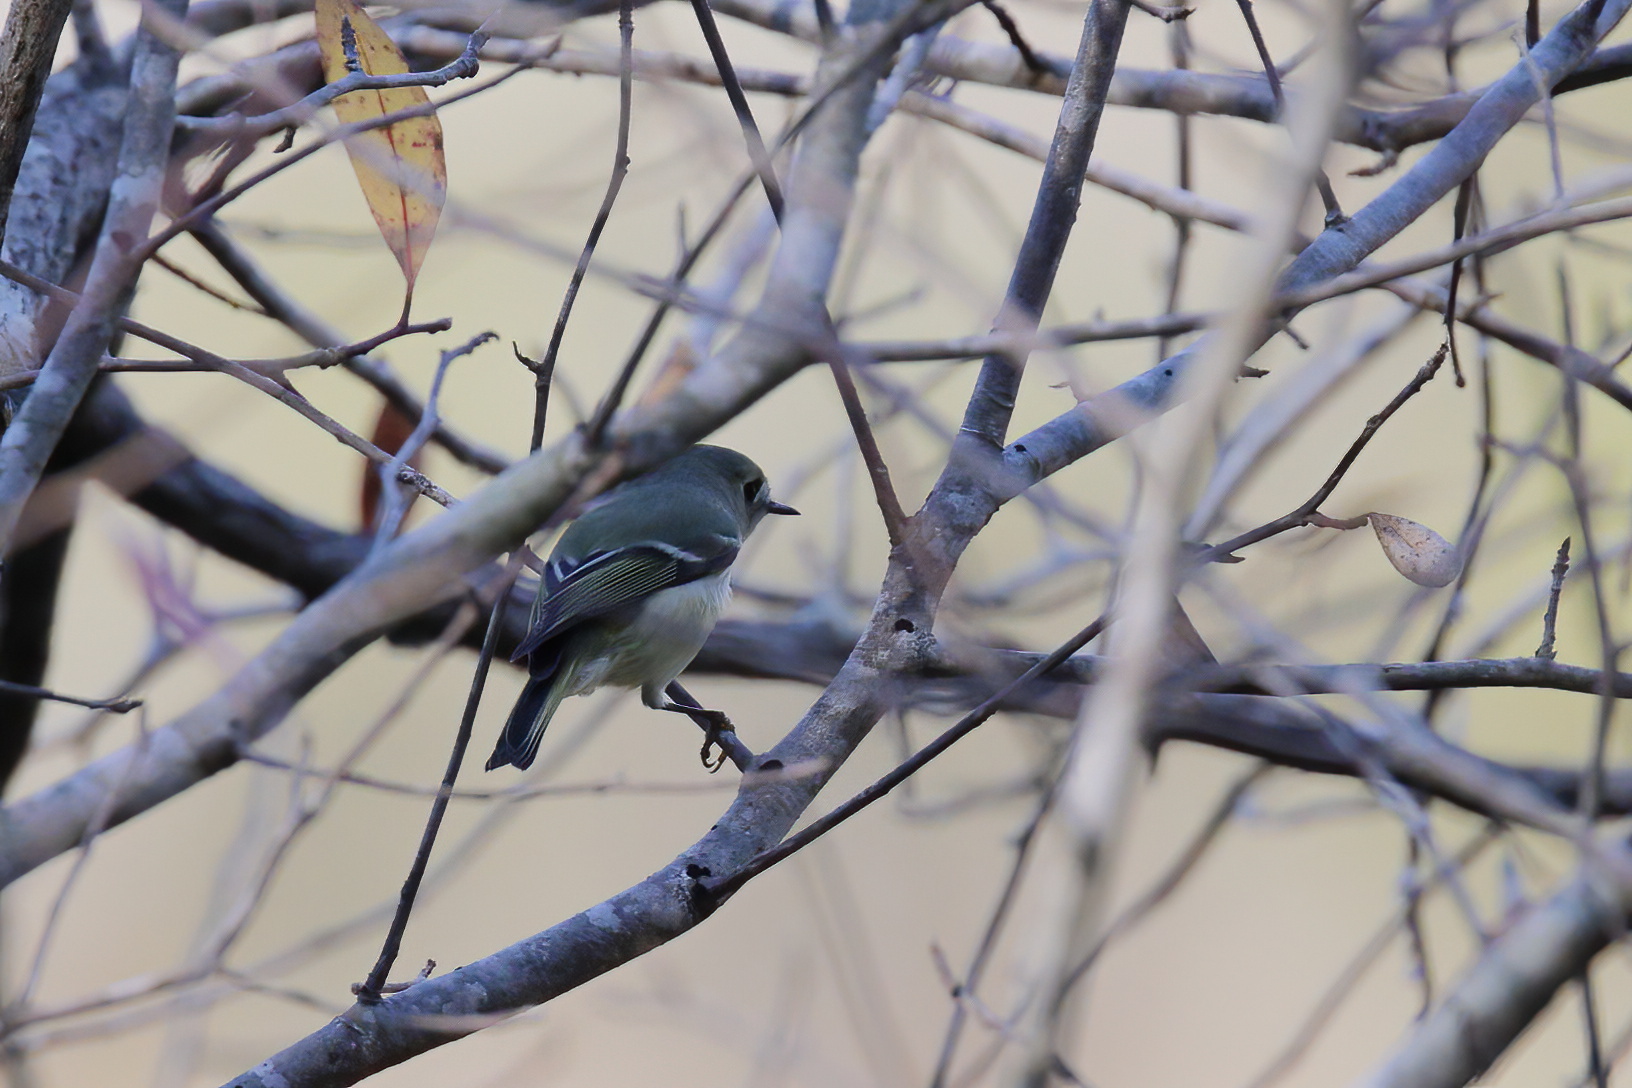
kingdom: Animalia
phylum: Chordata
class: Aves
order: Passeriformes
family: Regulidae
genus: Regulus
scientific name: Regulus calendula
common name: Ruby-crowned kinglet
